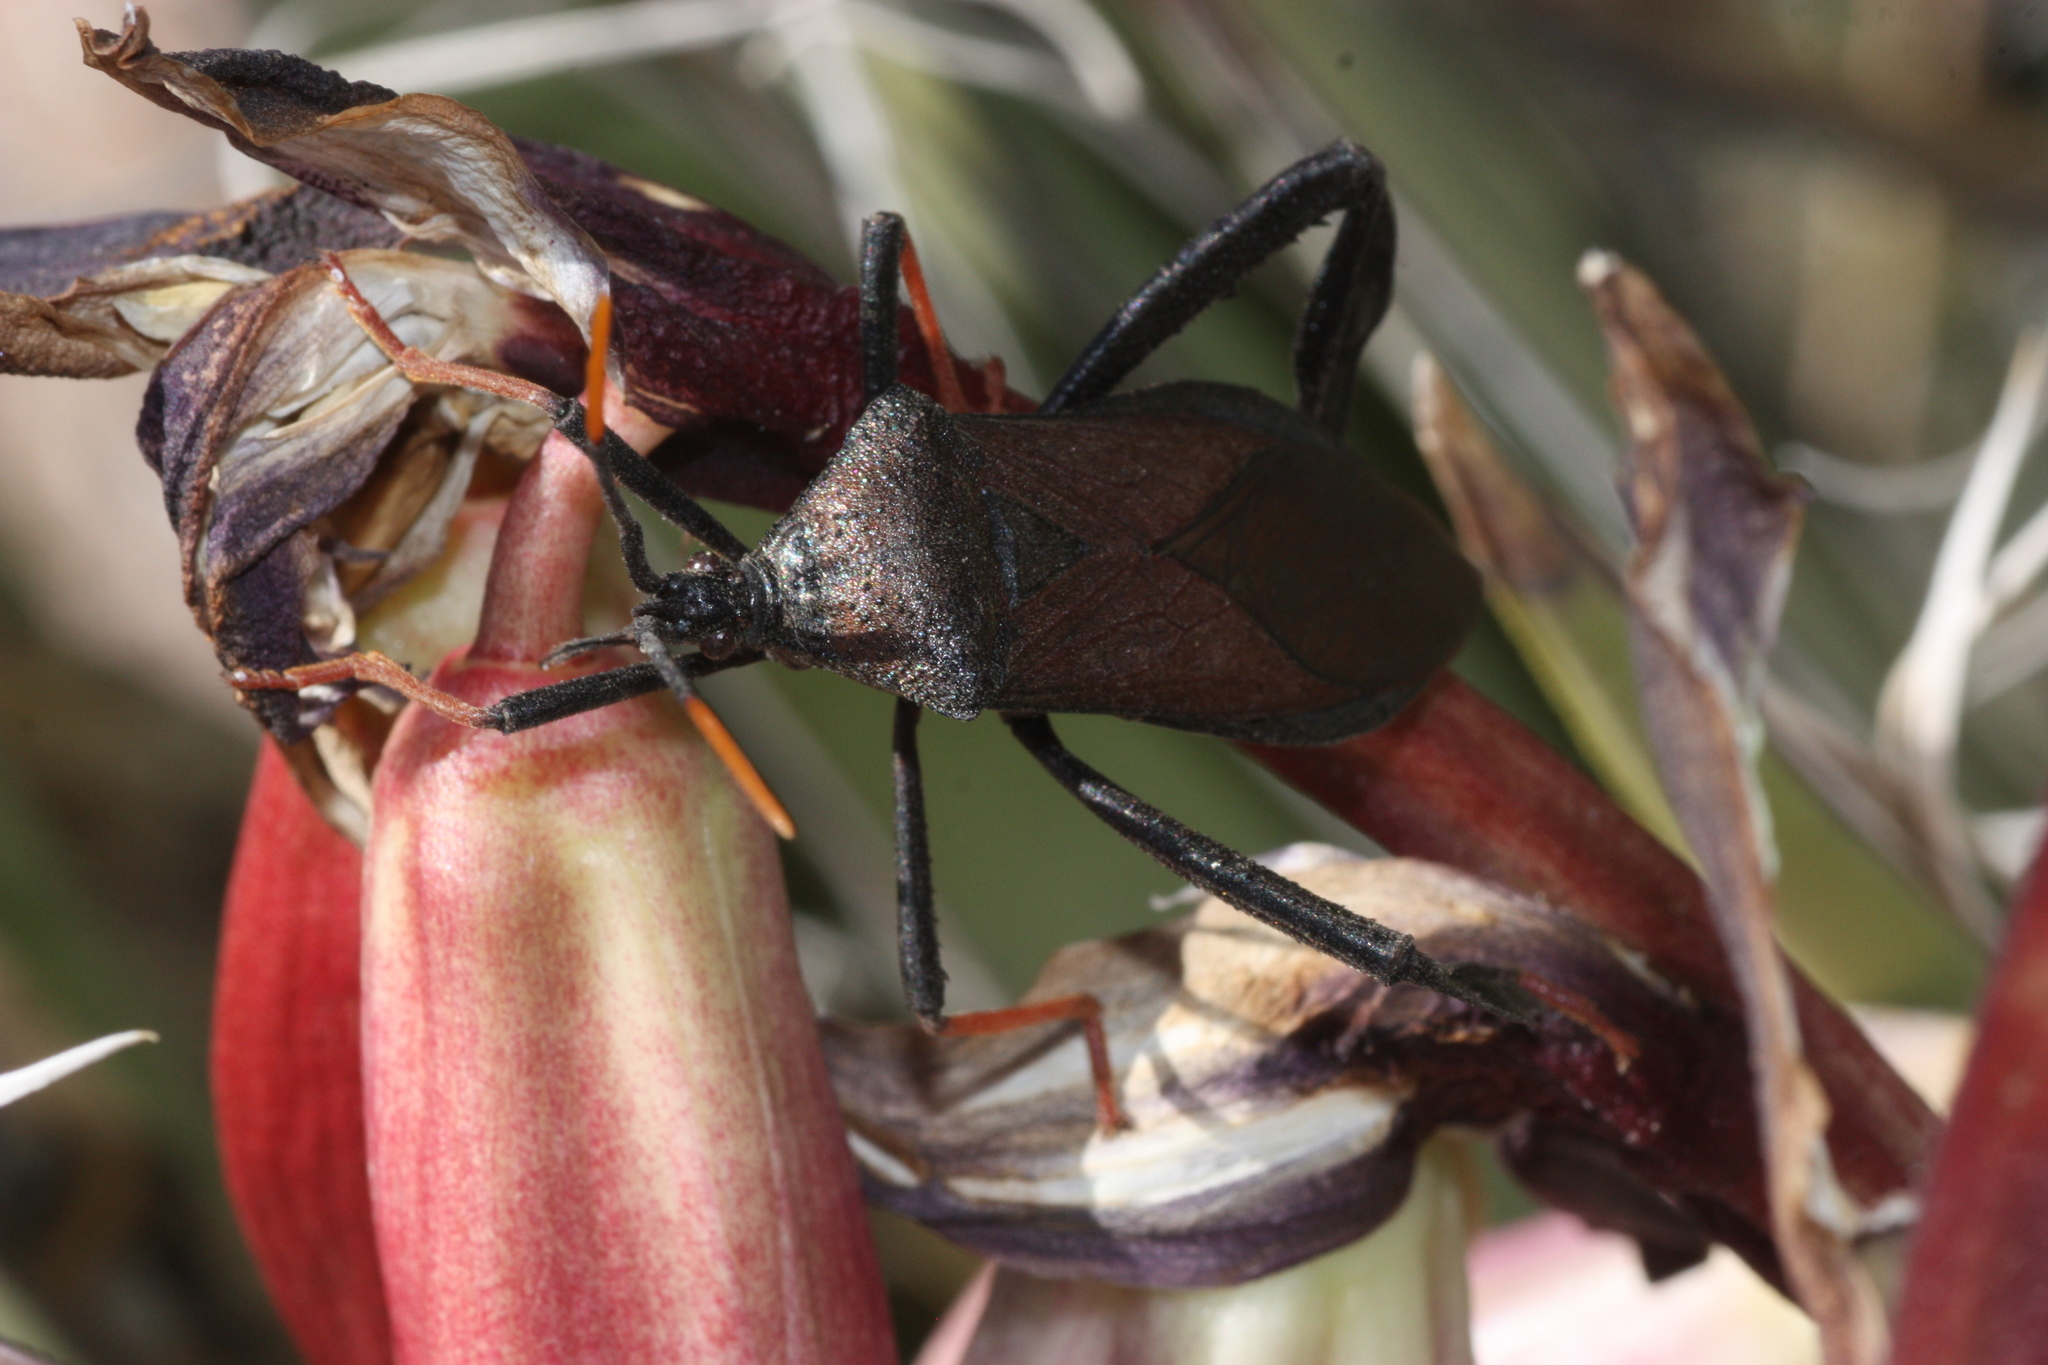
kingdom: Animalia
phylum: Arthropoda
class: Insecta
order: Hemiptera
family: Coreidae
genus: Acanthocephala
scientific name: Acanthocephala thomasi
